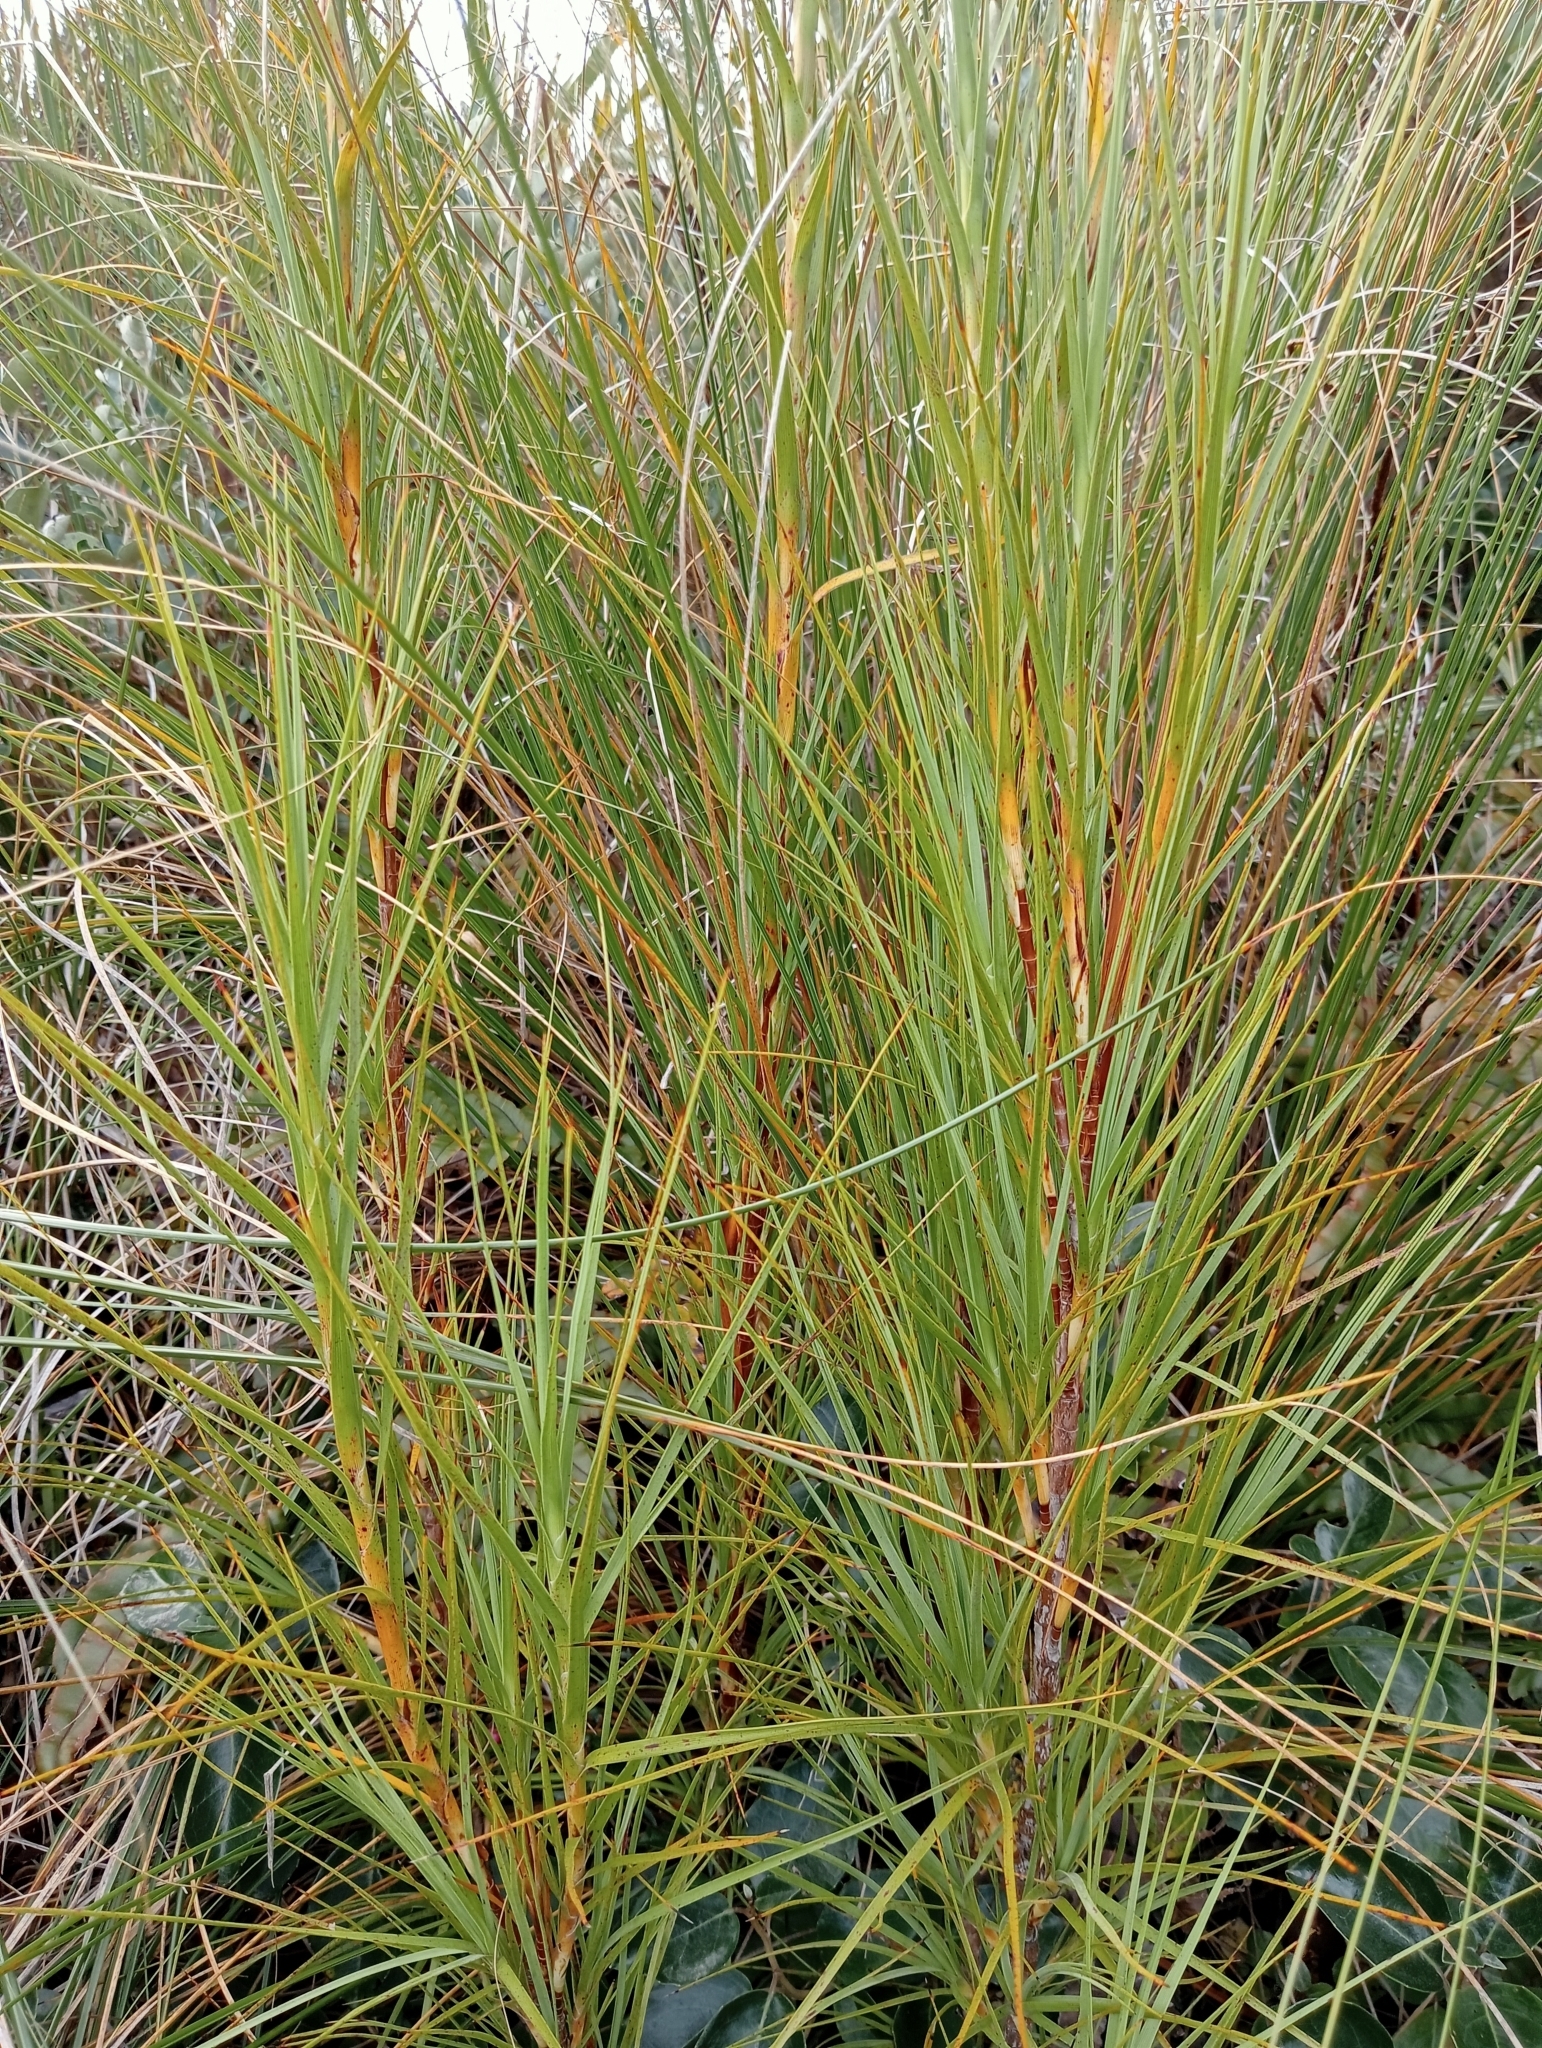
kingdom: Plantae
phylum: Tracheophyta
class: Magnoliopsida
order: Ericales
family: Ericaceae
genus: Dracophyllum
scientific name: Dracophyllum longifolium
